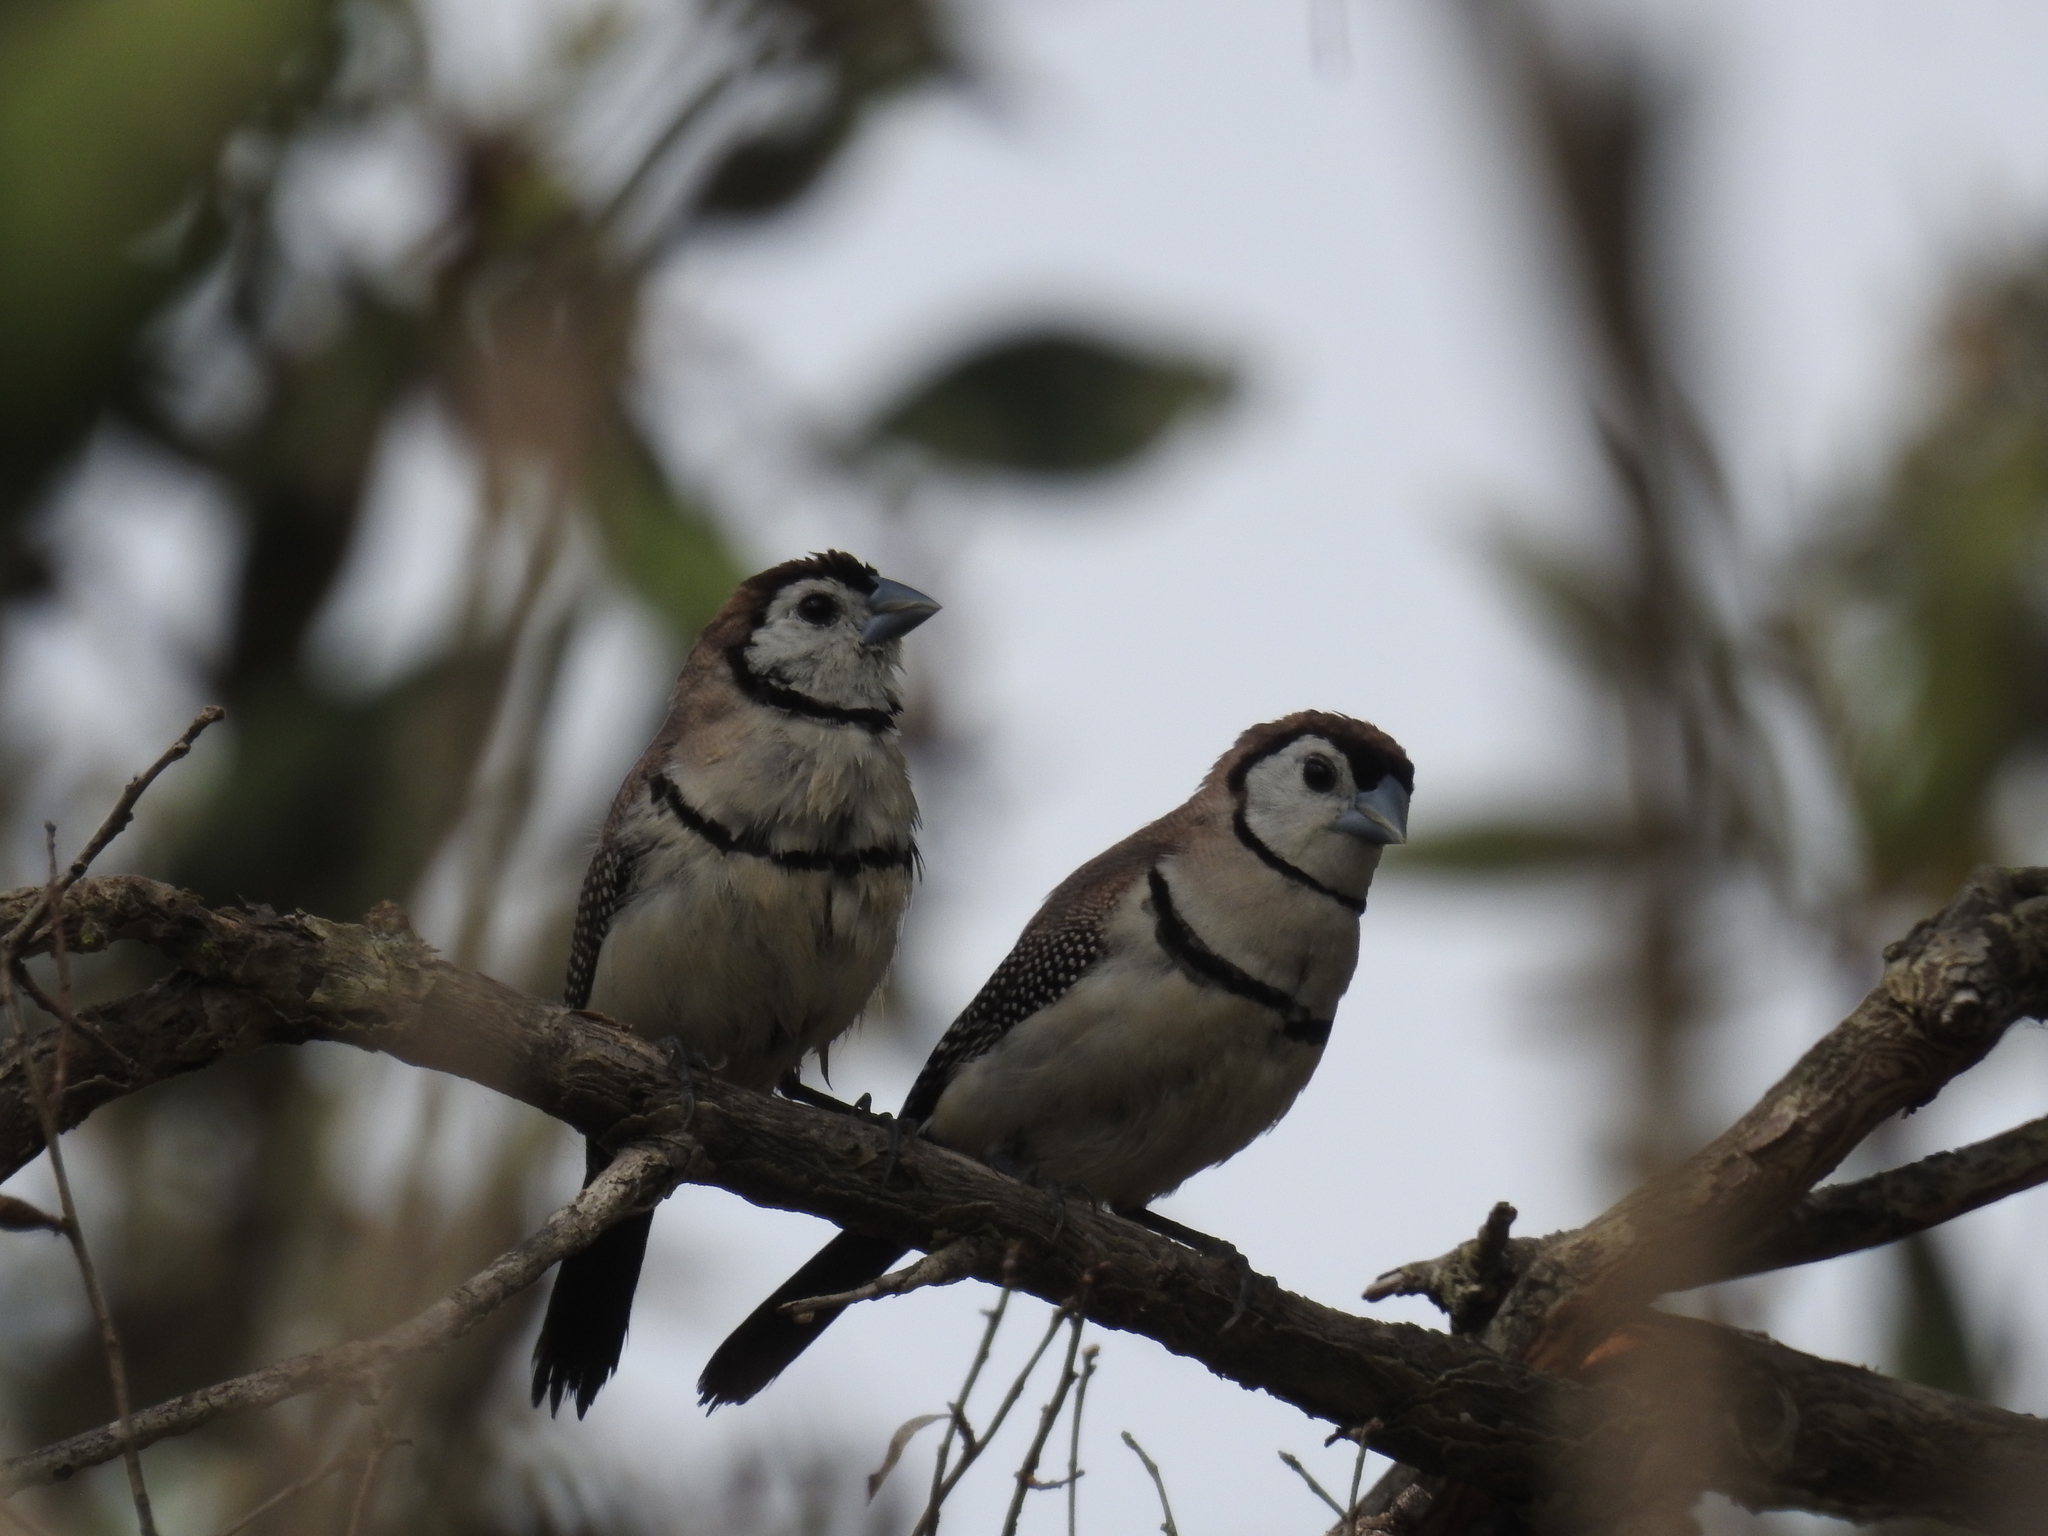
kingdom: Animalia
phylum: Chordata
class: Aves
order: Passeriformes
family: Estrildidae
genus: Taeniopygia
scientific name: Taeniopygia bichenovii
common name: Double-barred finch
